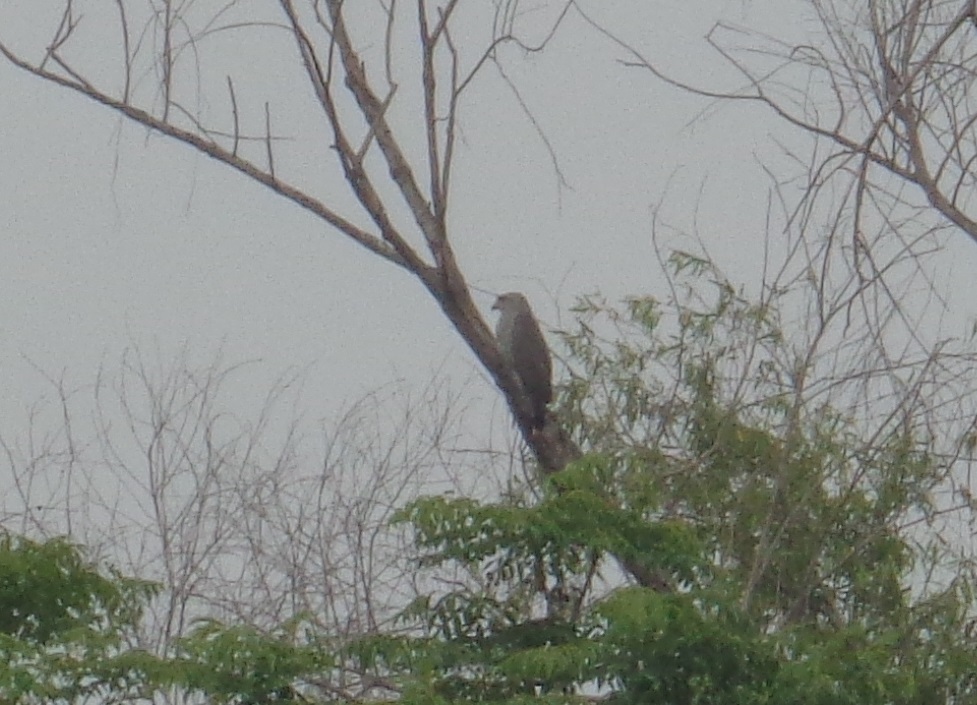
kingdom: Animalia
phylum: Chordata
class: Aves
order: Accipitriformes
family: Accipitridae
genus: Buteo
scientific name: Buteo nitidus
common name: Grey-lined hawk
